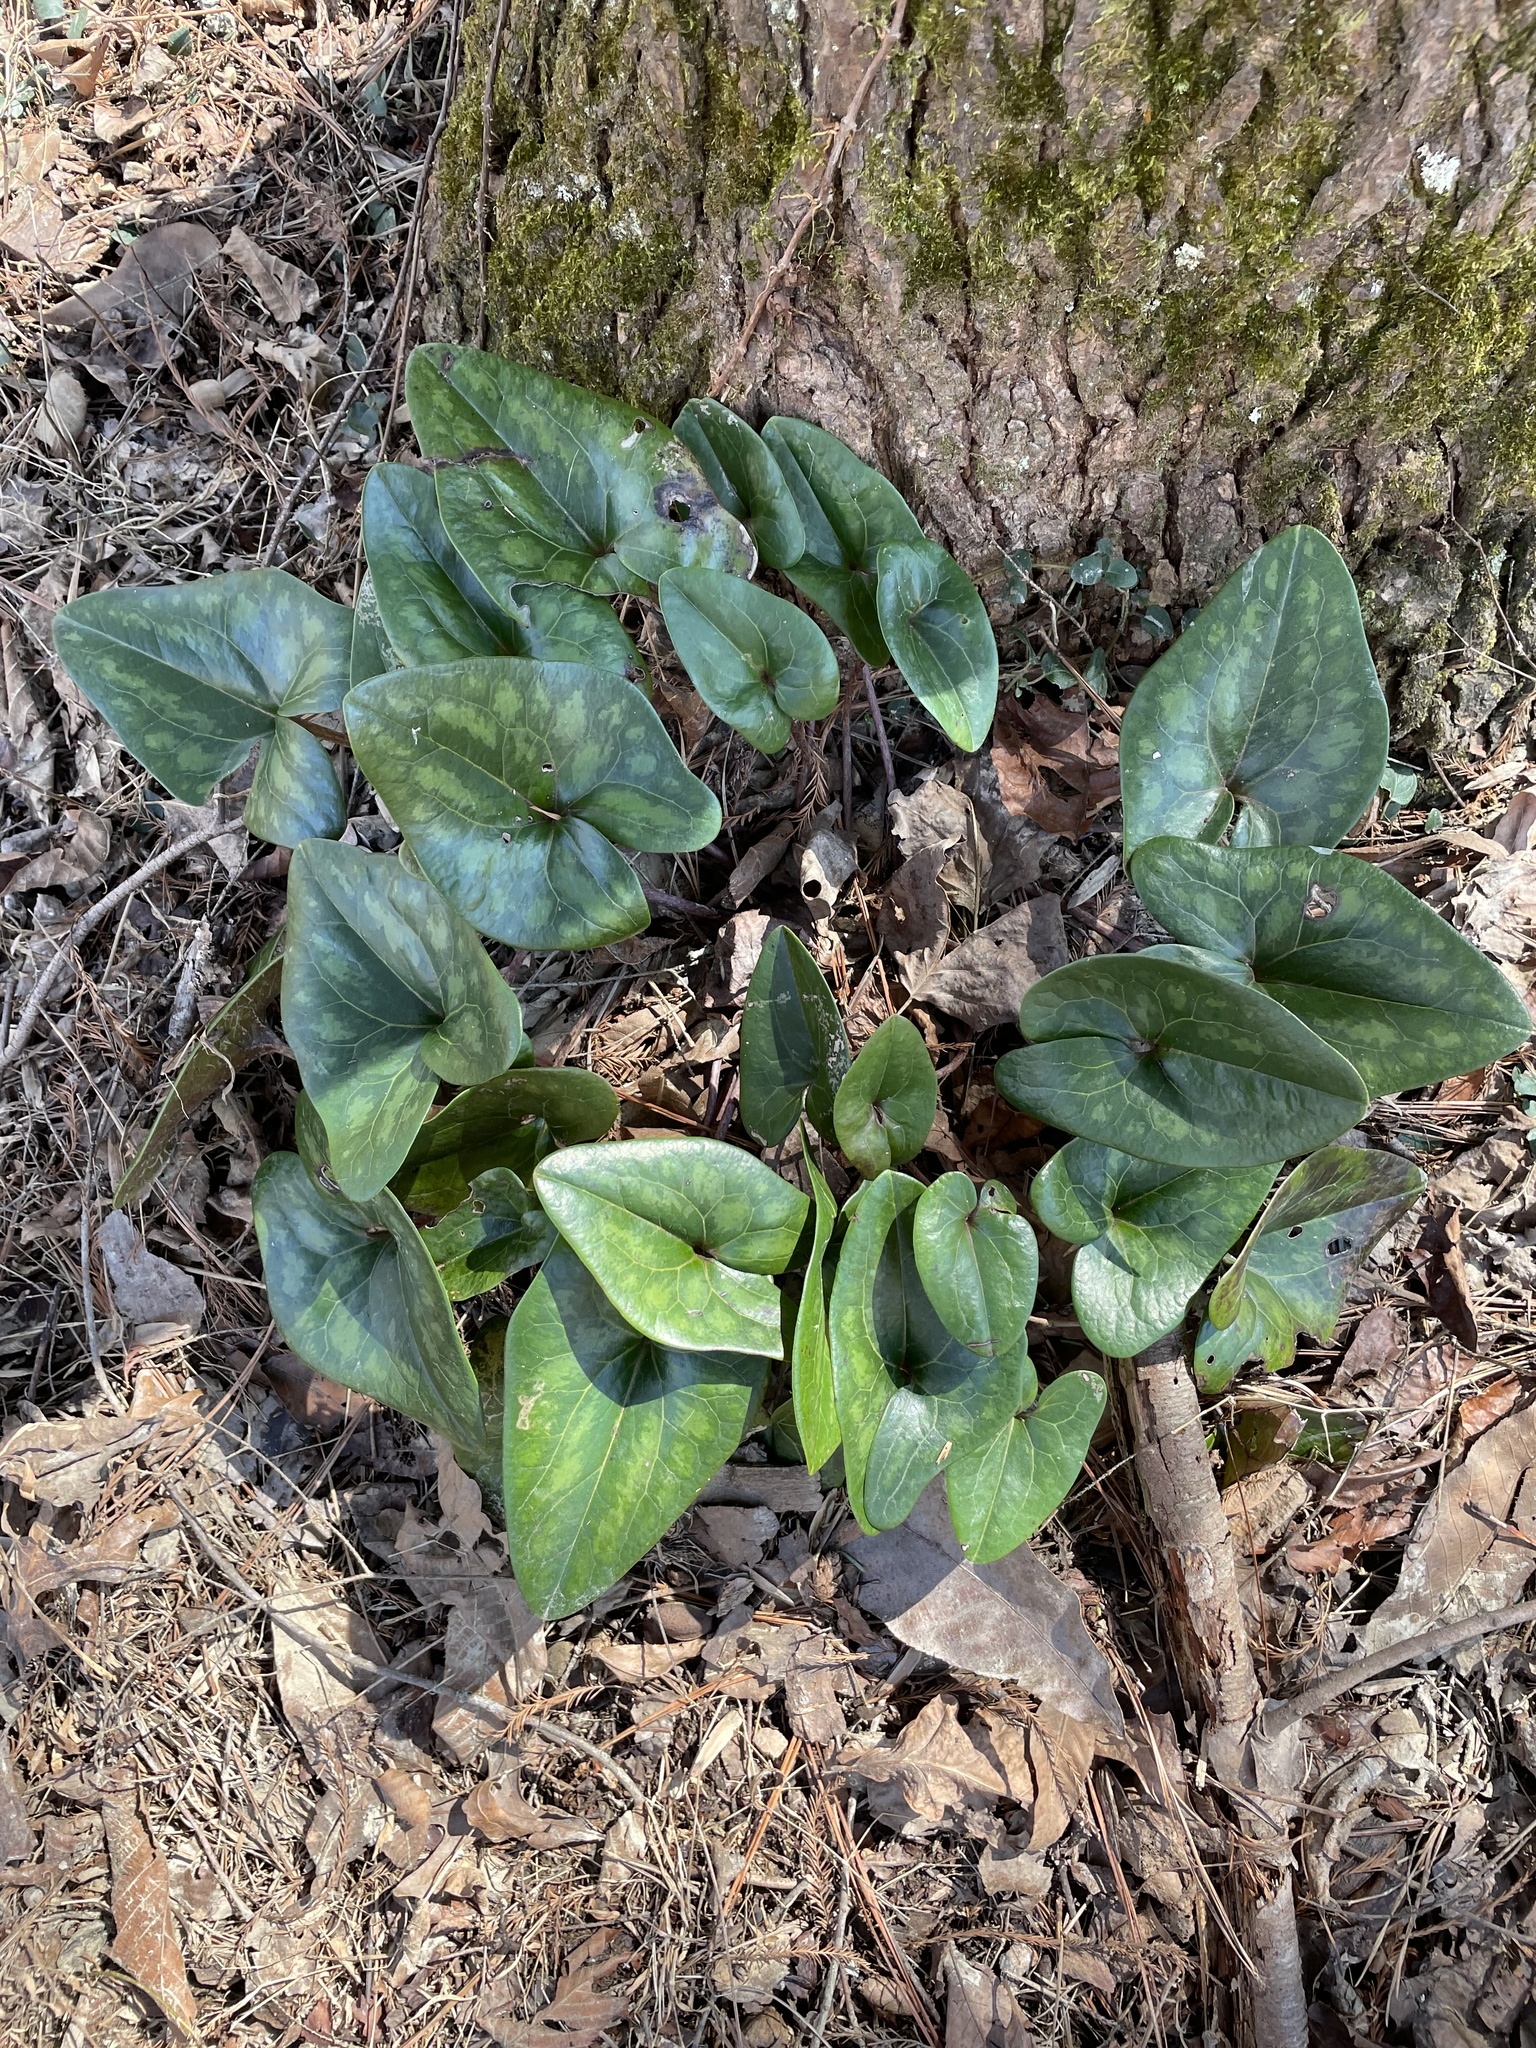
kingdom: Plantae
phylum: Tracheophyta
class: Magnoliopsida
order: Piperales
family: Aristolochiaceae
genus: Hexastylis
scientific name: Hexastylis arifolia
